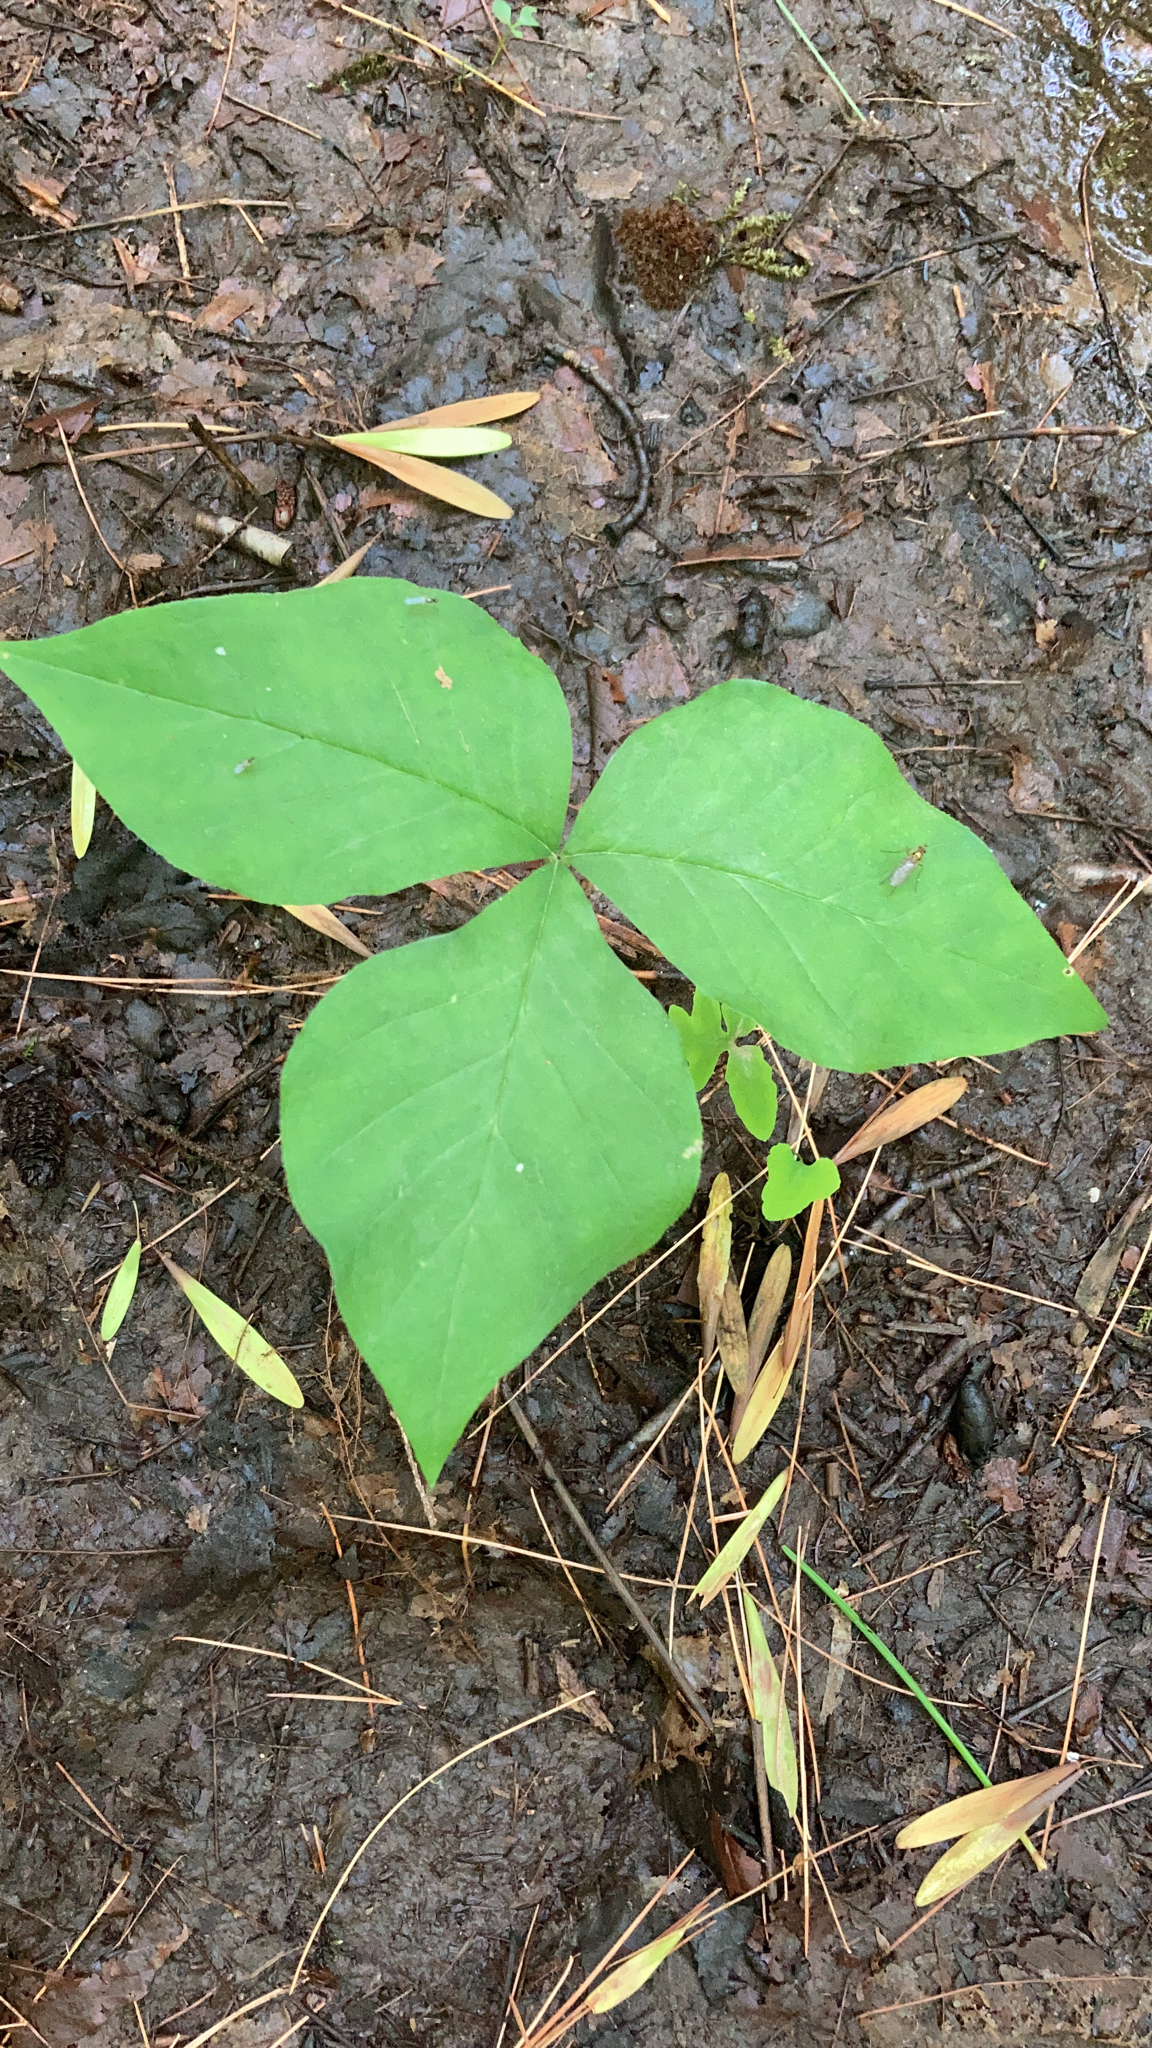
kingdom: Plantae
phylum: Tracheophyta
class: Liliopsida
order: Alismatales
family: Araceae
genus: Arisaema
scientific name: Arisaema triphyllum
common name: Jack-in-the-pulpit
